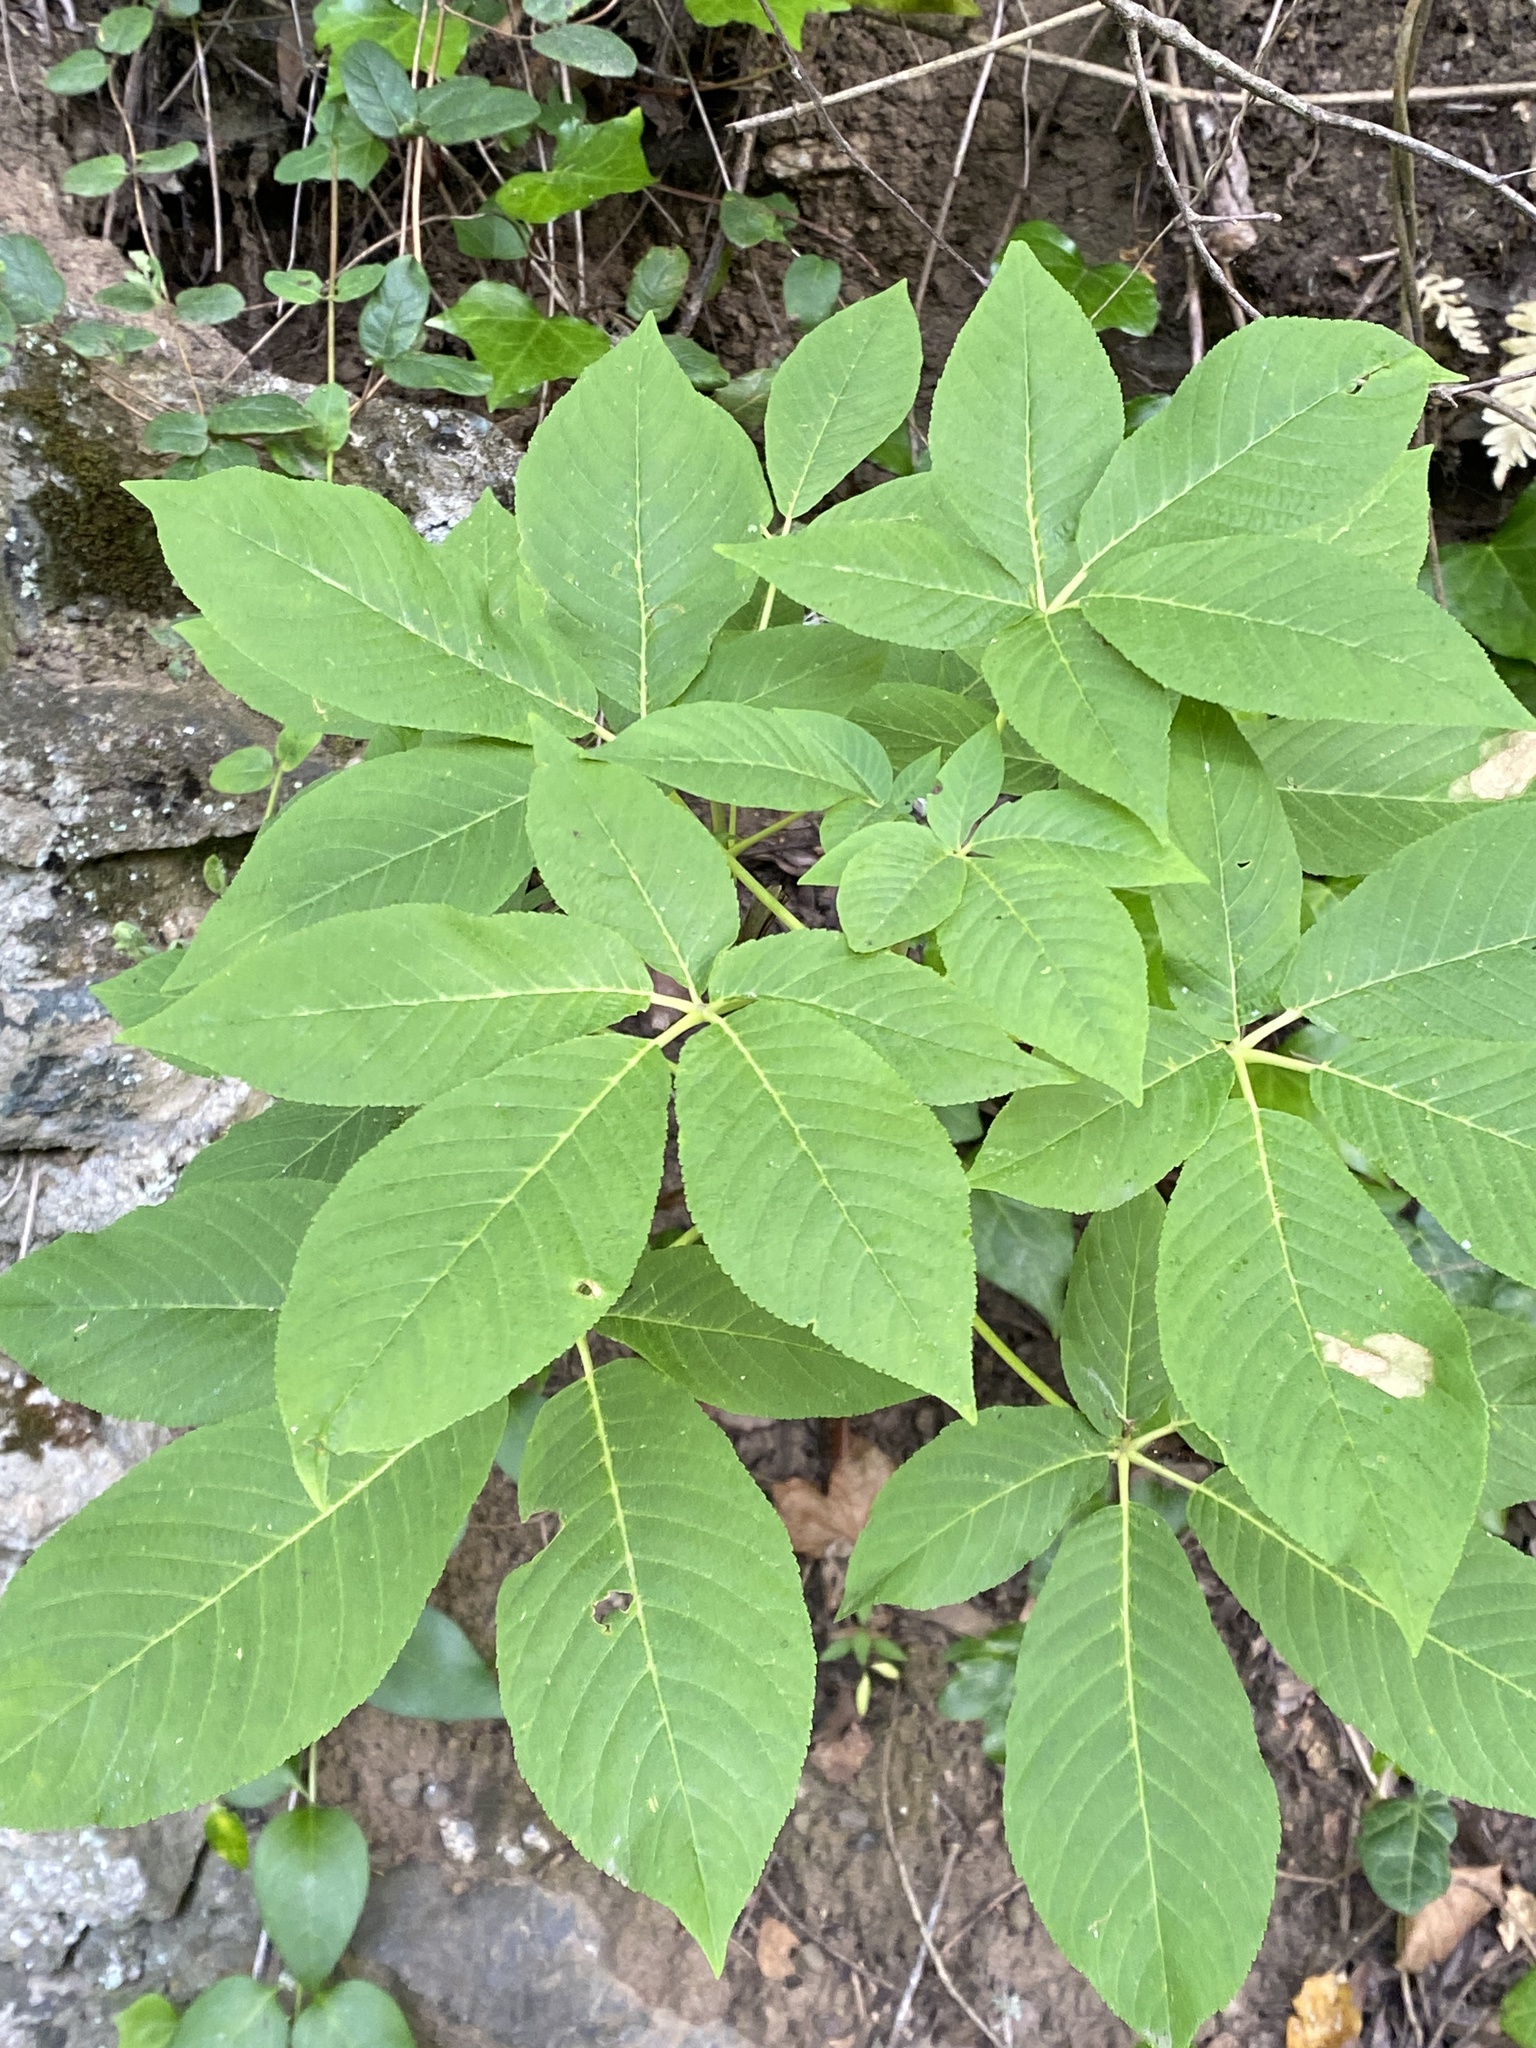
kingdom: Plantae
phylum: Tracheophyta
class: Magnoliopsida
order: Sapindales
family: Sapindaceae
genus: Aesculus
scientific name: Aesculus californica
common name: California buckeye
